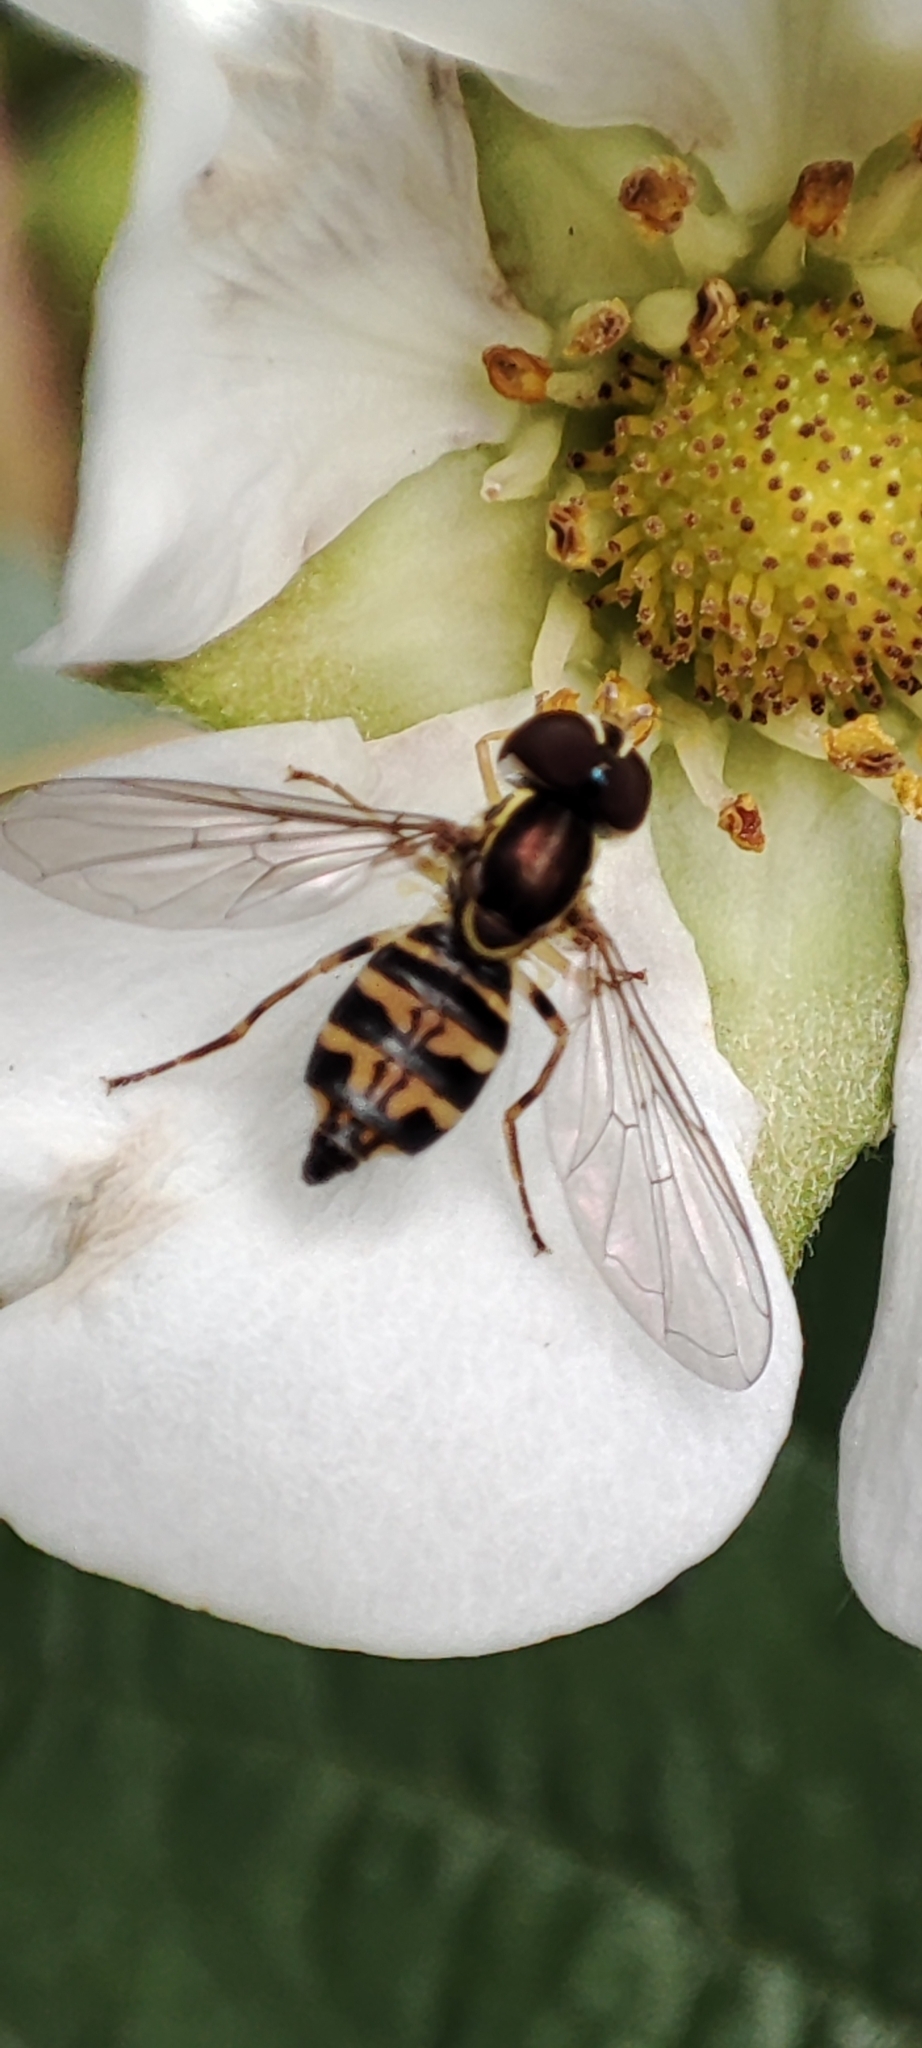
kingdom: Animalia
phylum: Arthropoda
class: Insecta
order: Diptera
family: Syrphidae
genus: Toxomerus
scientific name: Toxomerus occidentalis
